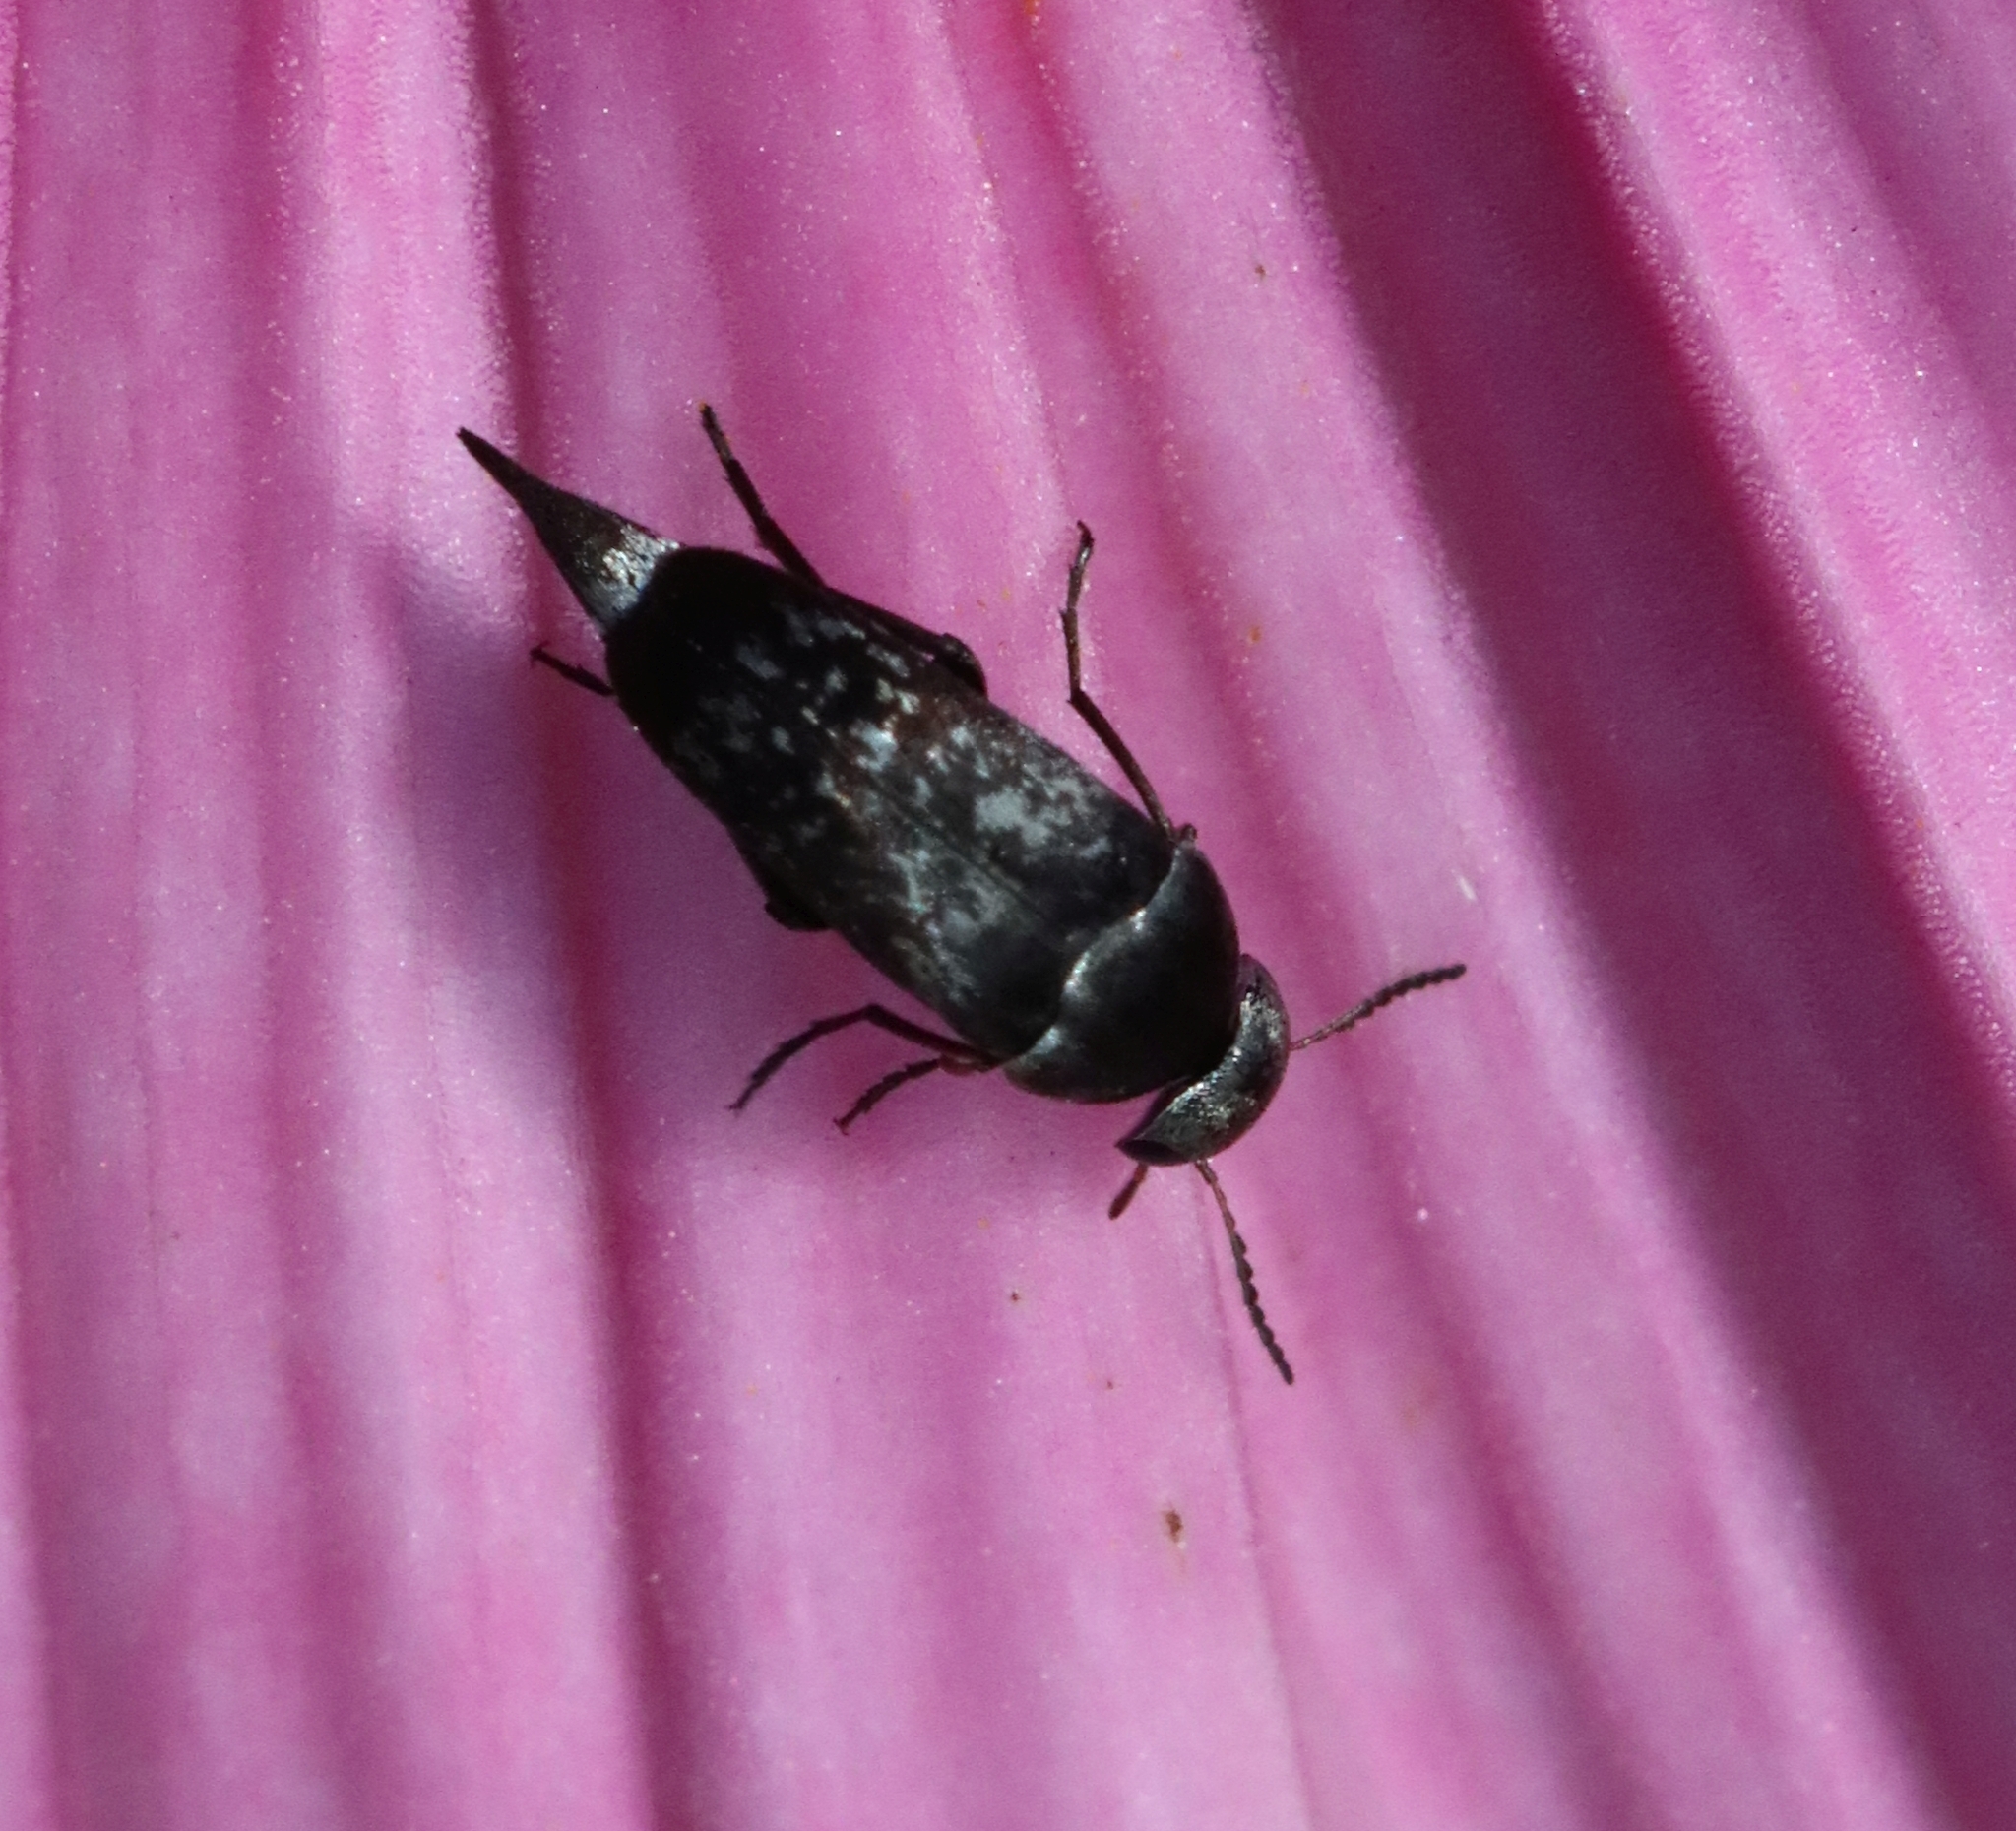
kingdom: Animalia
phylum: Arthropoda
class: Insecta
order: Coleoptera
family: Mordellidae
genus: Mordella
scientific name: Mordella marginata
